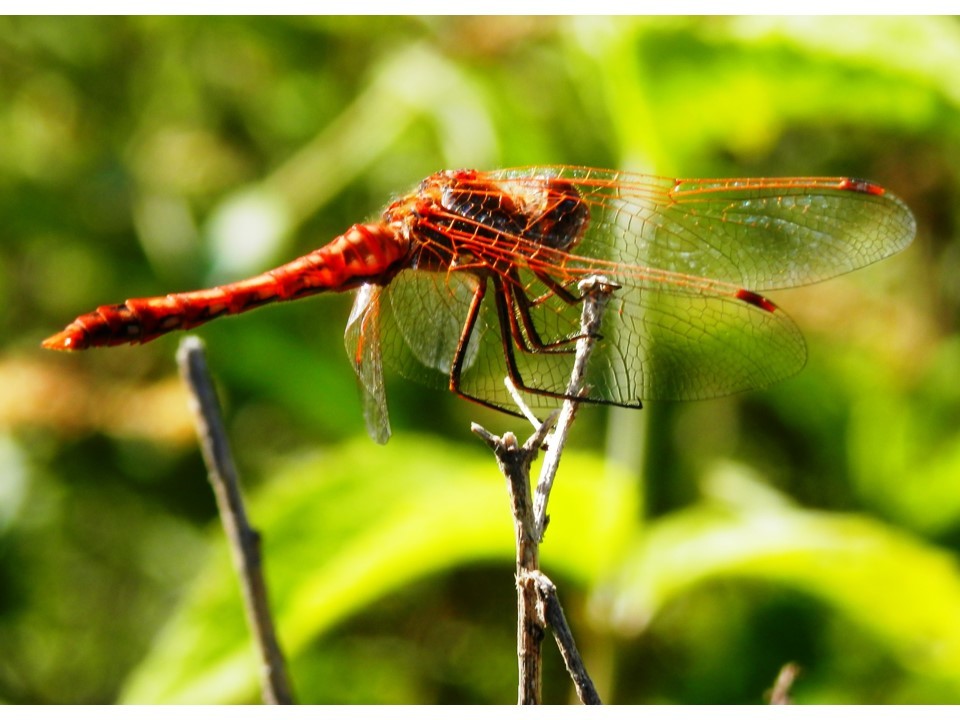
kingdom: Animalia
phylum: Arthropoda
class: Insecta
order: Odonata
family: Libellulidae
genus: Sympetrum
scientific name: Sympetrum corruptum
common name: Variegated meadowhawk
